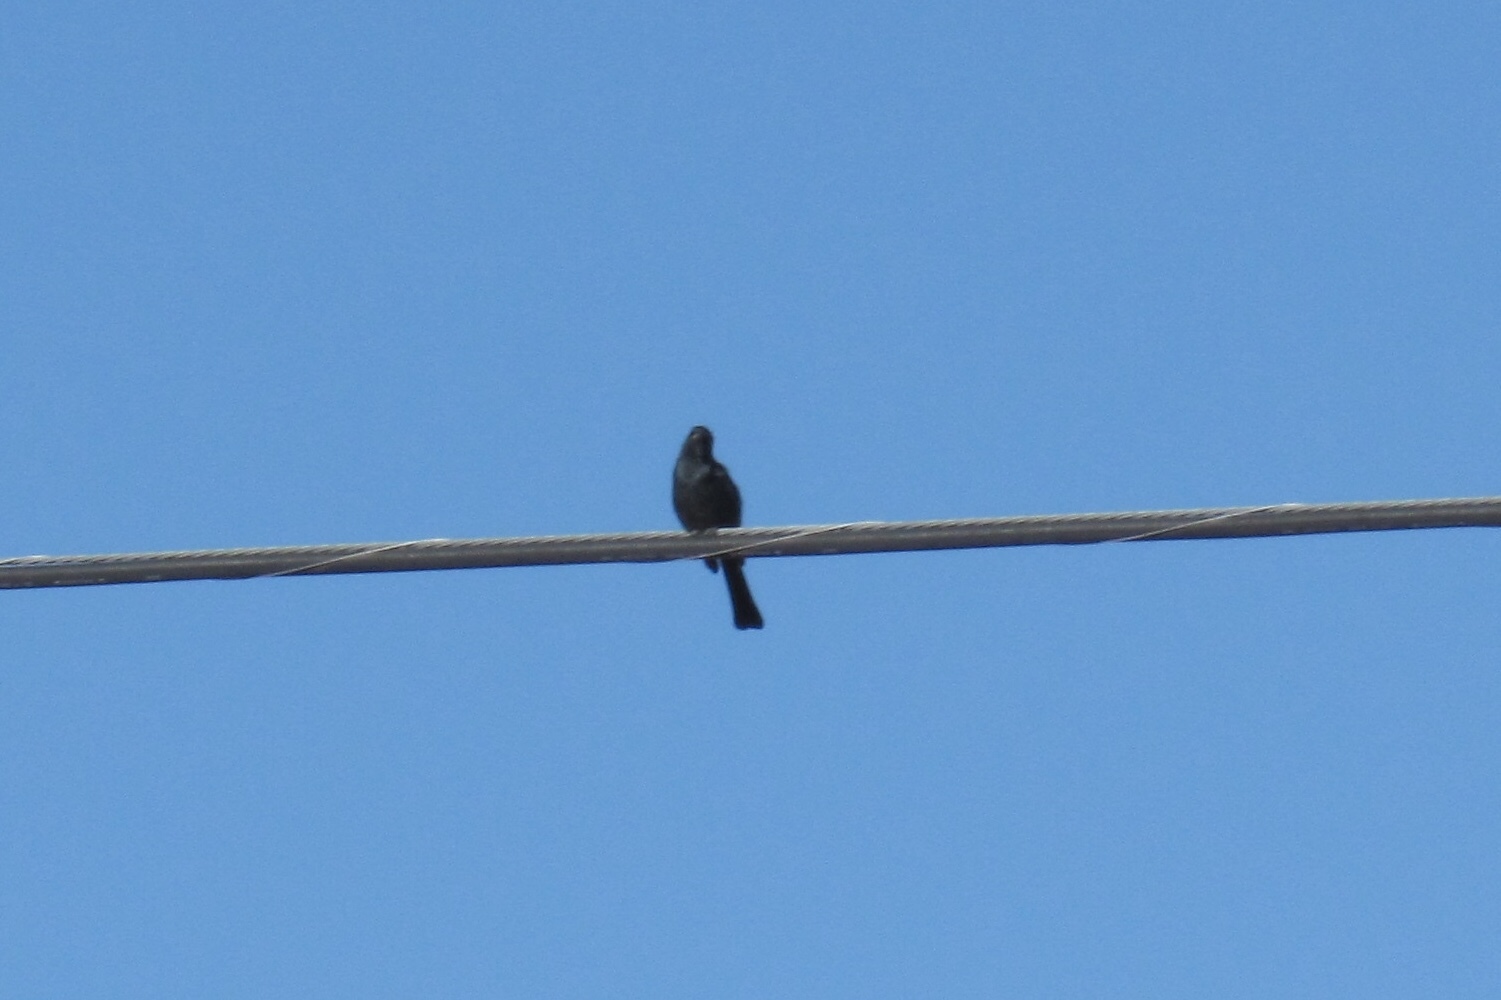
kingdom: Animalia
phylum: Chordata
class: Aves
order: Passeriformes
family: Ptilogonatidae
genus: Phainopepla
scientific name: Phainopepla nitens
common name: Phainopepla
